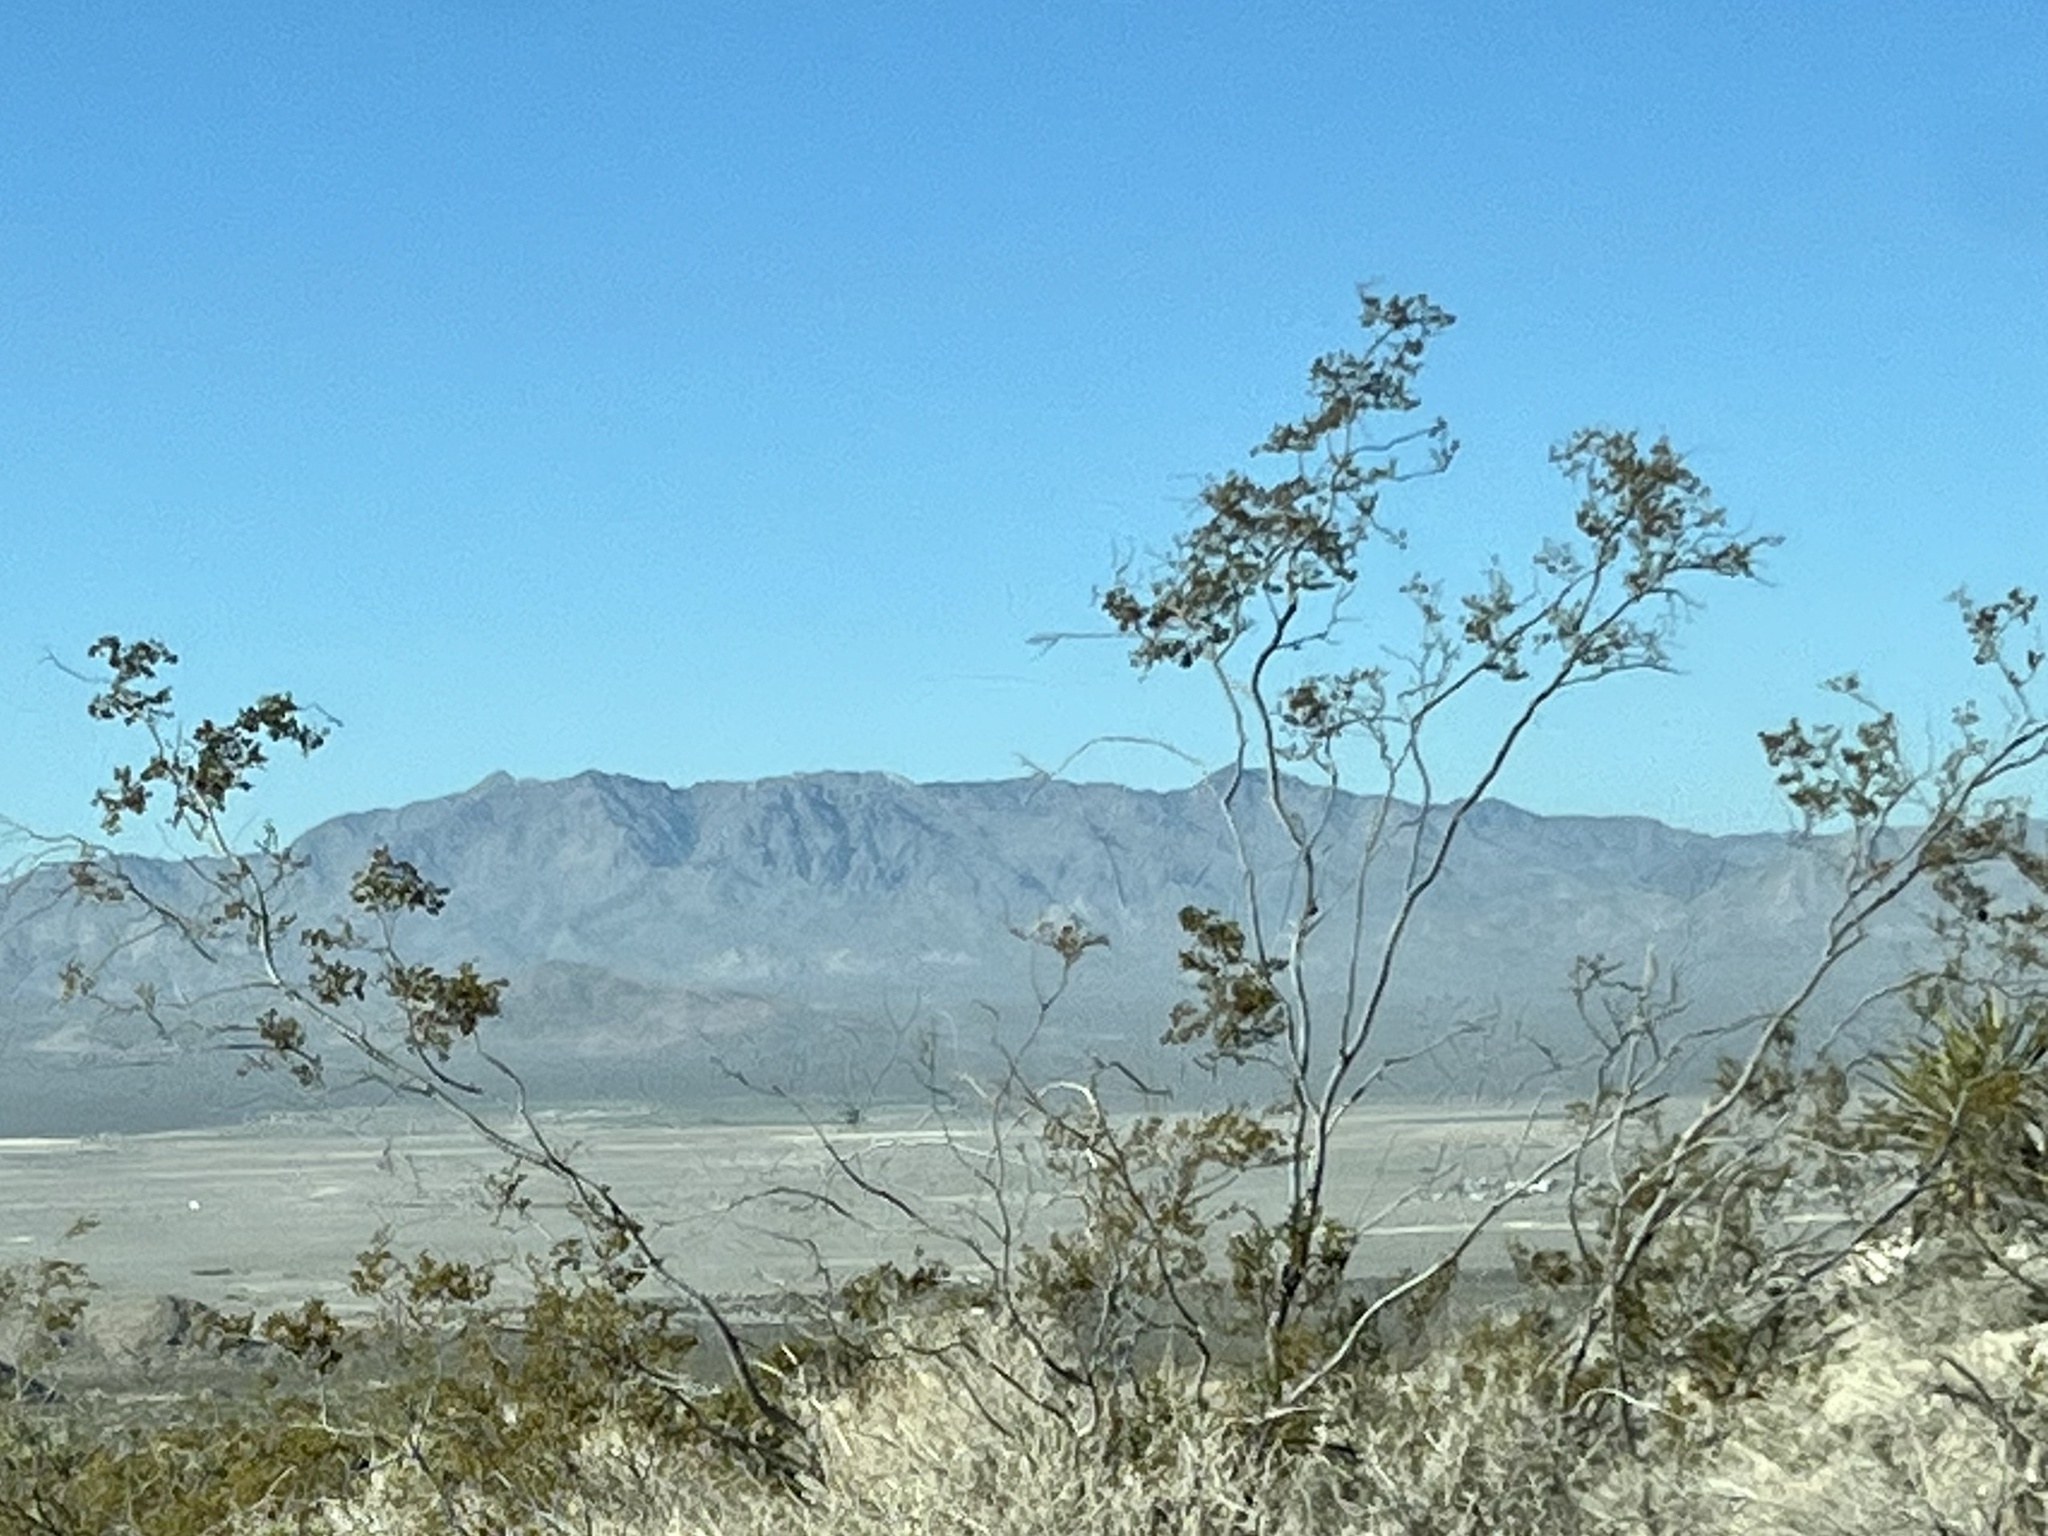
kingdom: Plantae
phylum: Tracheophyta
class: Magnoliopsida
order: Zygophyllales
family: Zygophyllaceae
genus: Larrea
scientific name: Larrea tridentata
